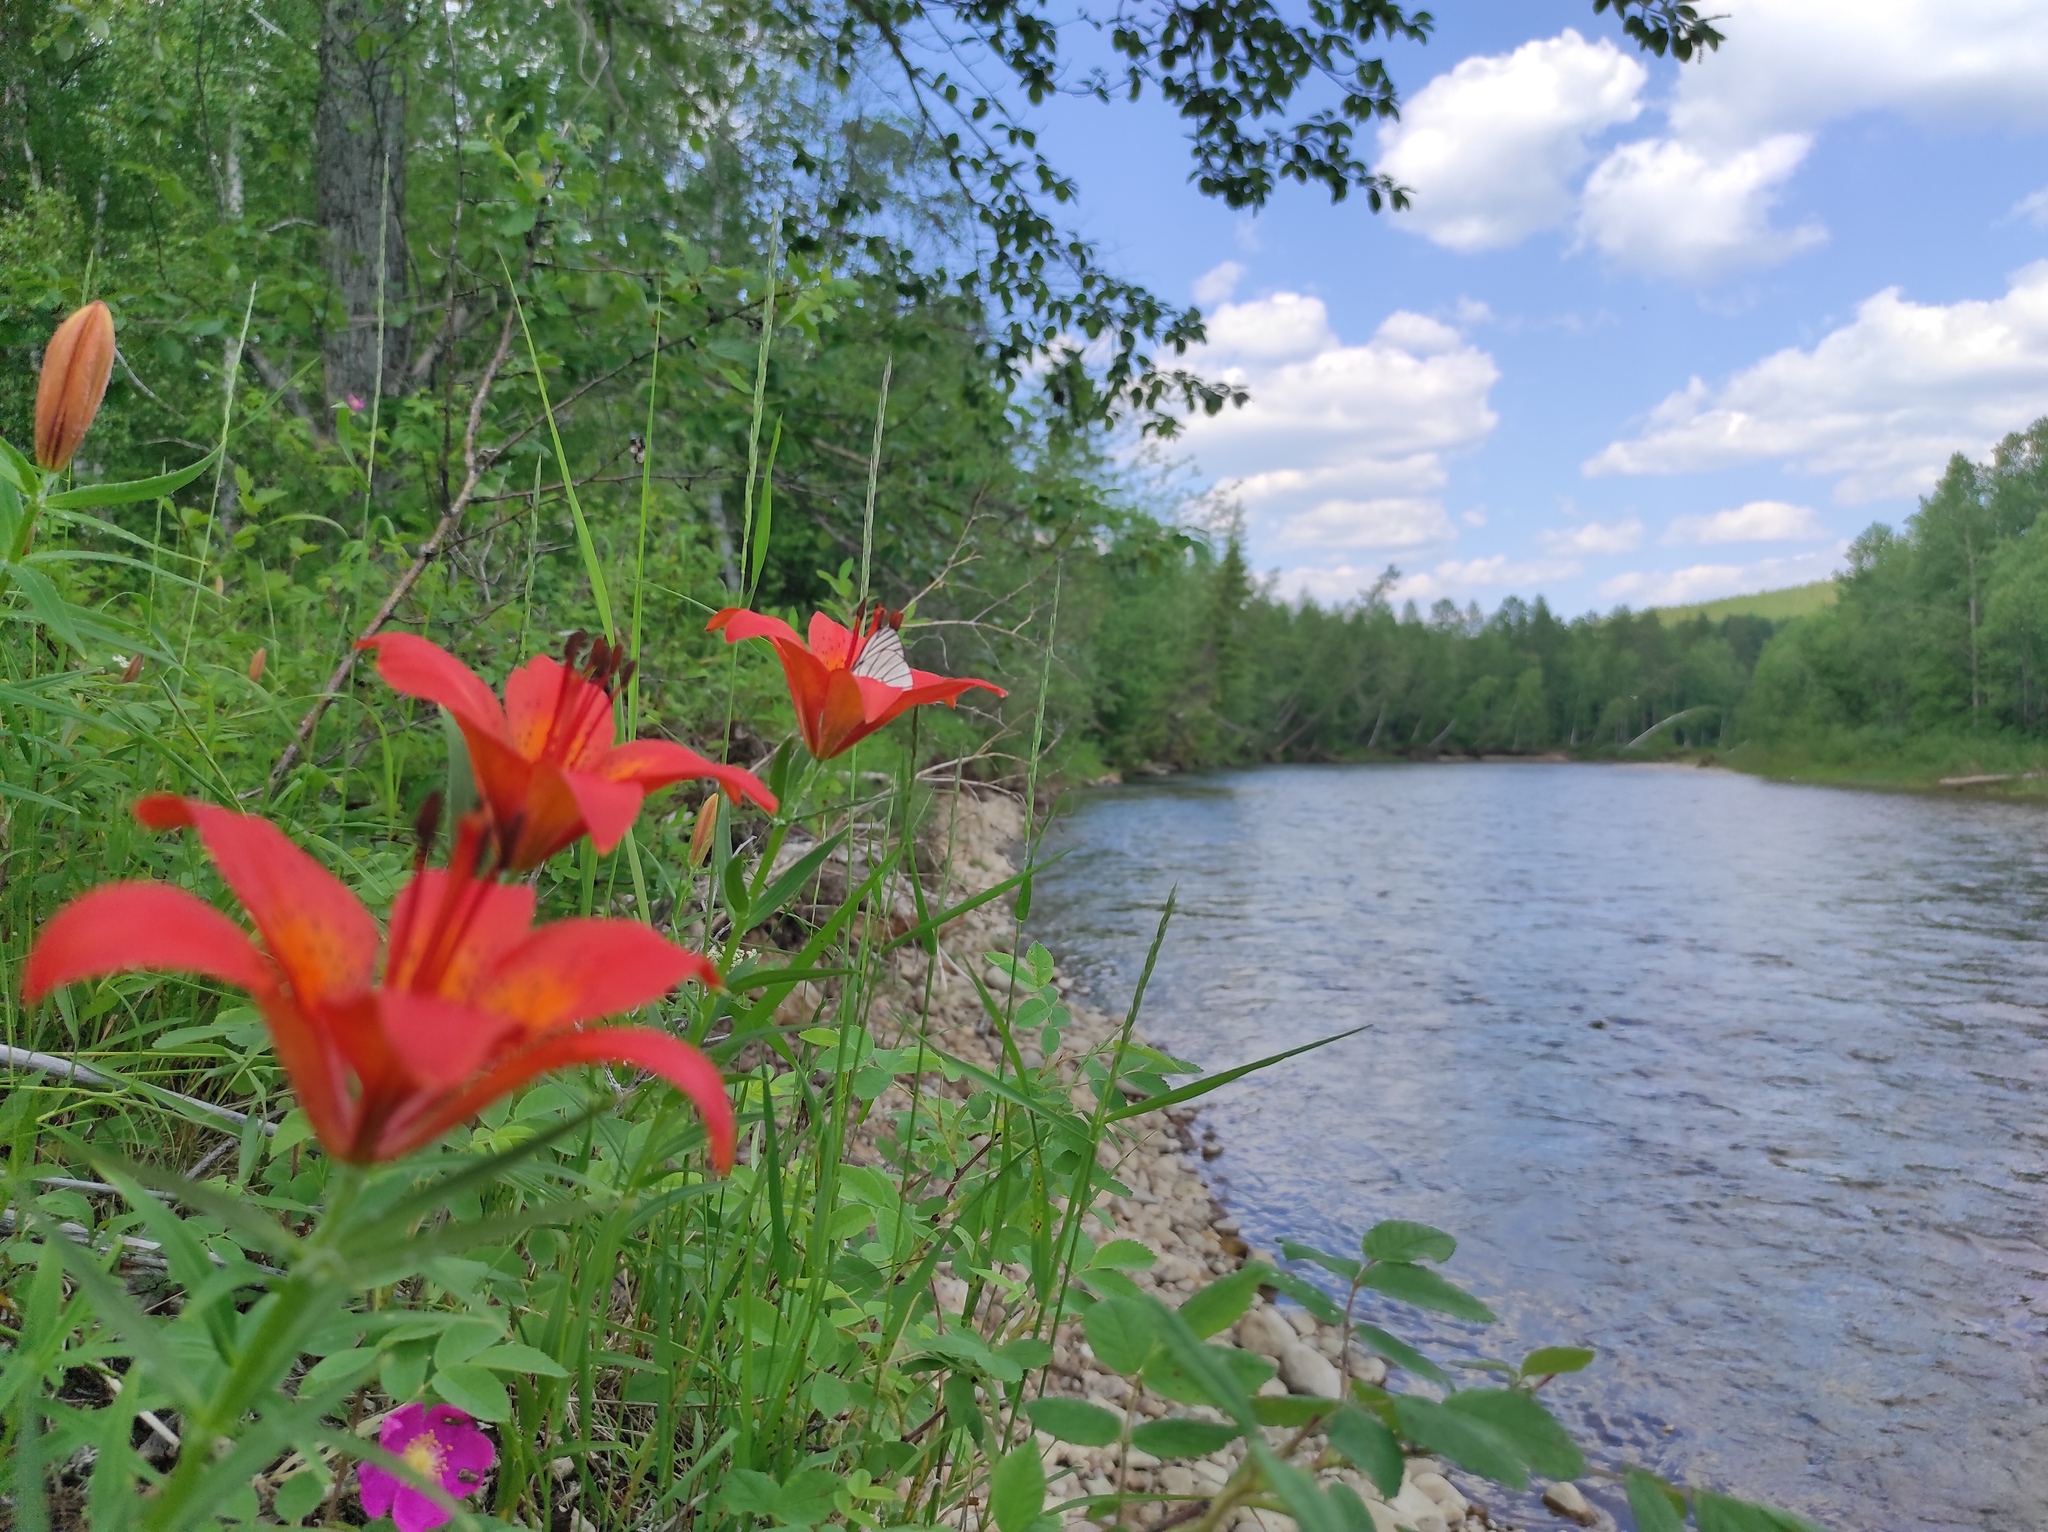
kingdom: Animalia
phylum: Arthropoda
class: Insecta
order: Lepidoptera
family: Pieridae
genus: Aporia
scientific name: Aporia crataegi
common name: Black-veined white
